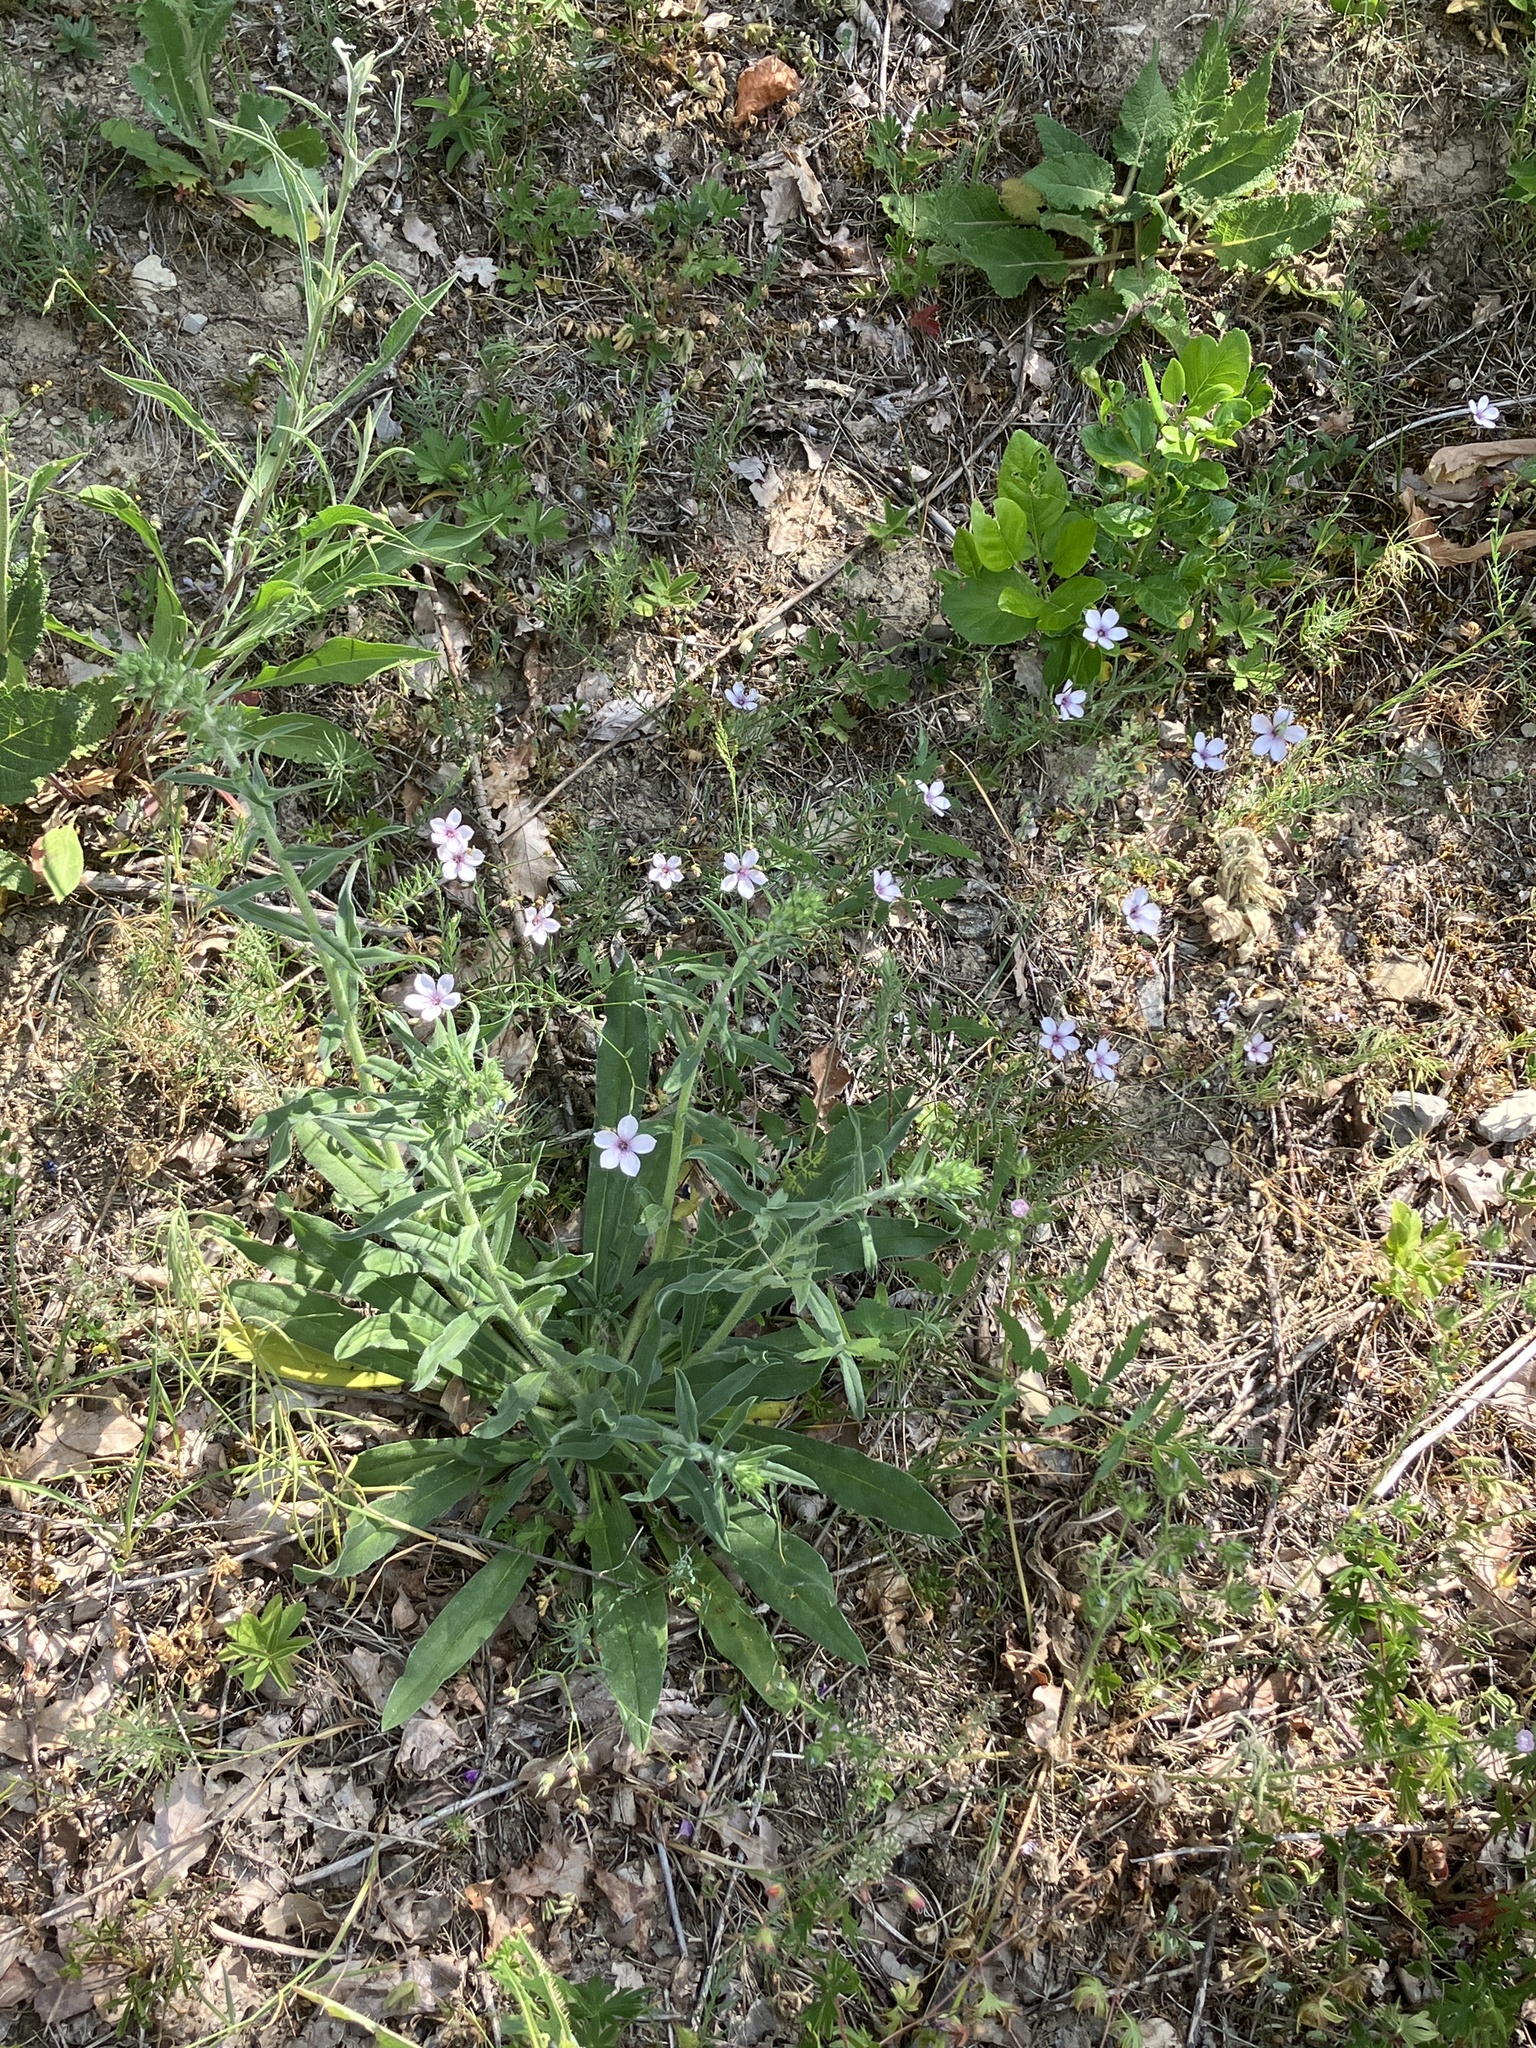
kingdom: Plantae
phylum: Tracheophyta
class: Magnoliopsida
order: Malpighiales
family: Linaceae
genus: Linum
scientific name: Linum tenuifolium
